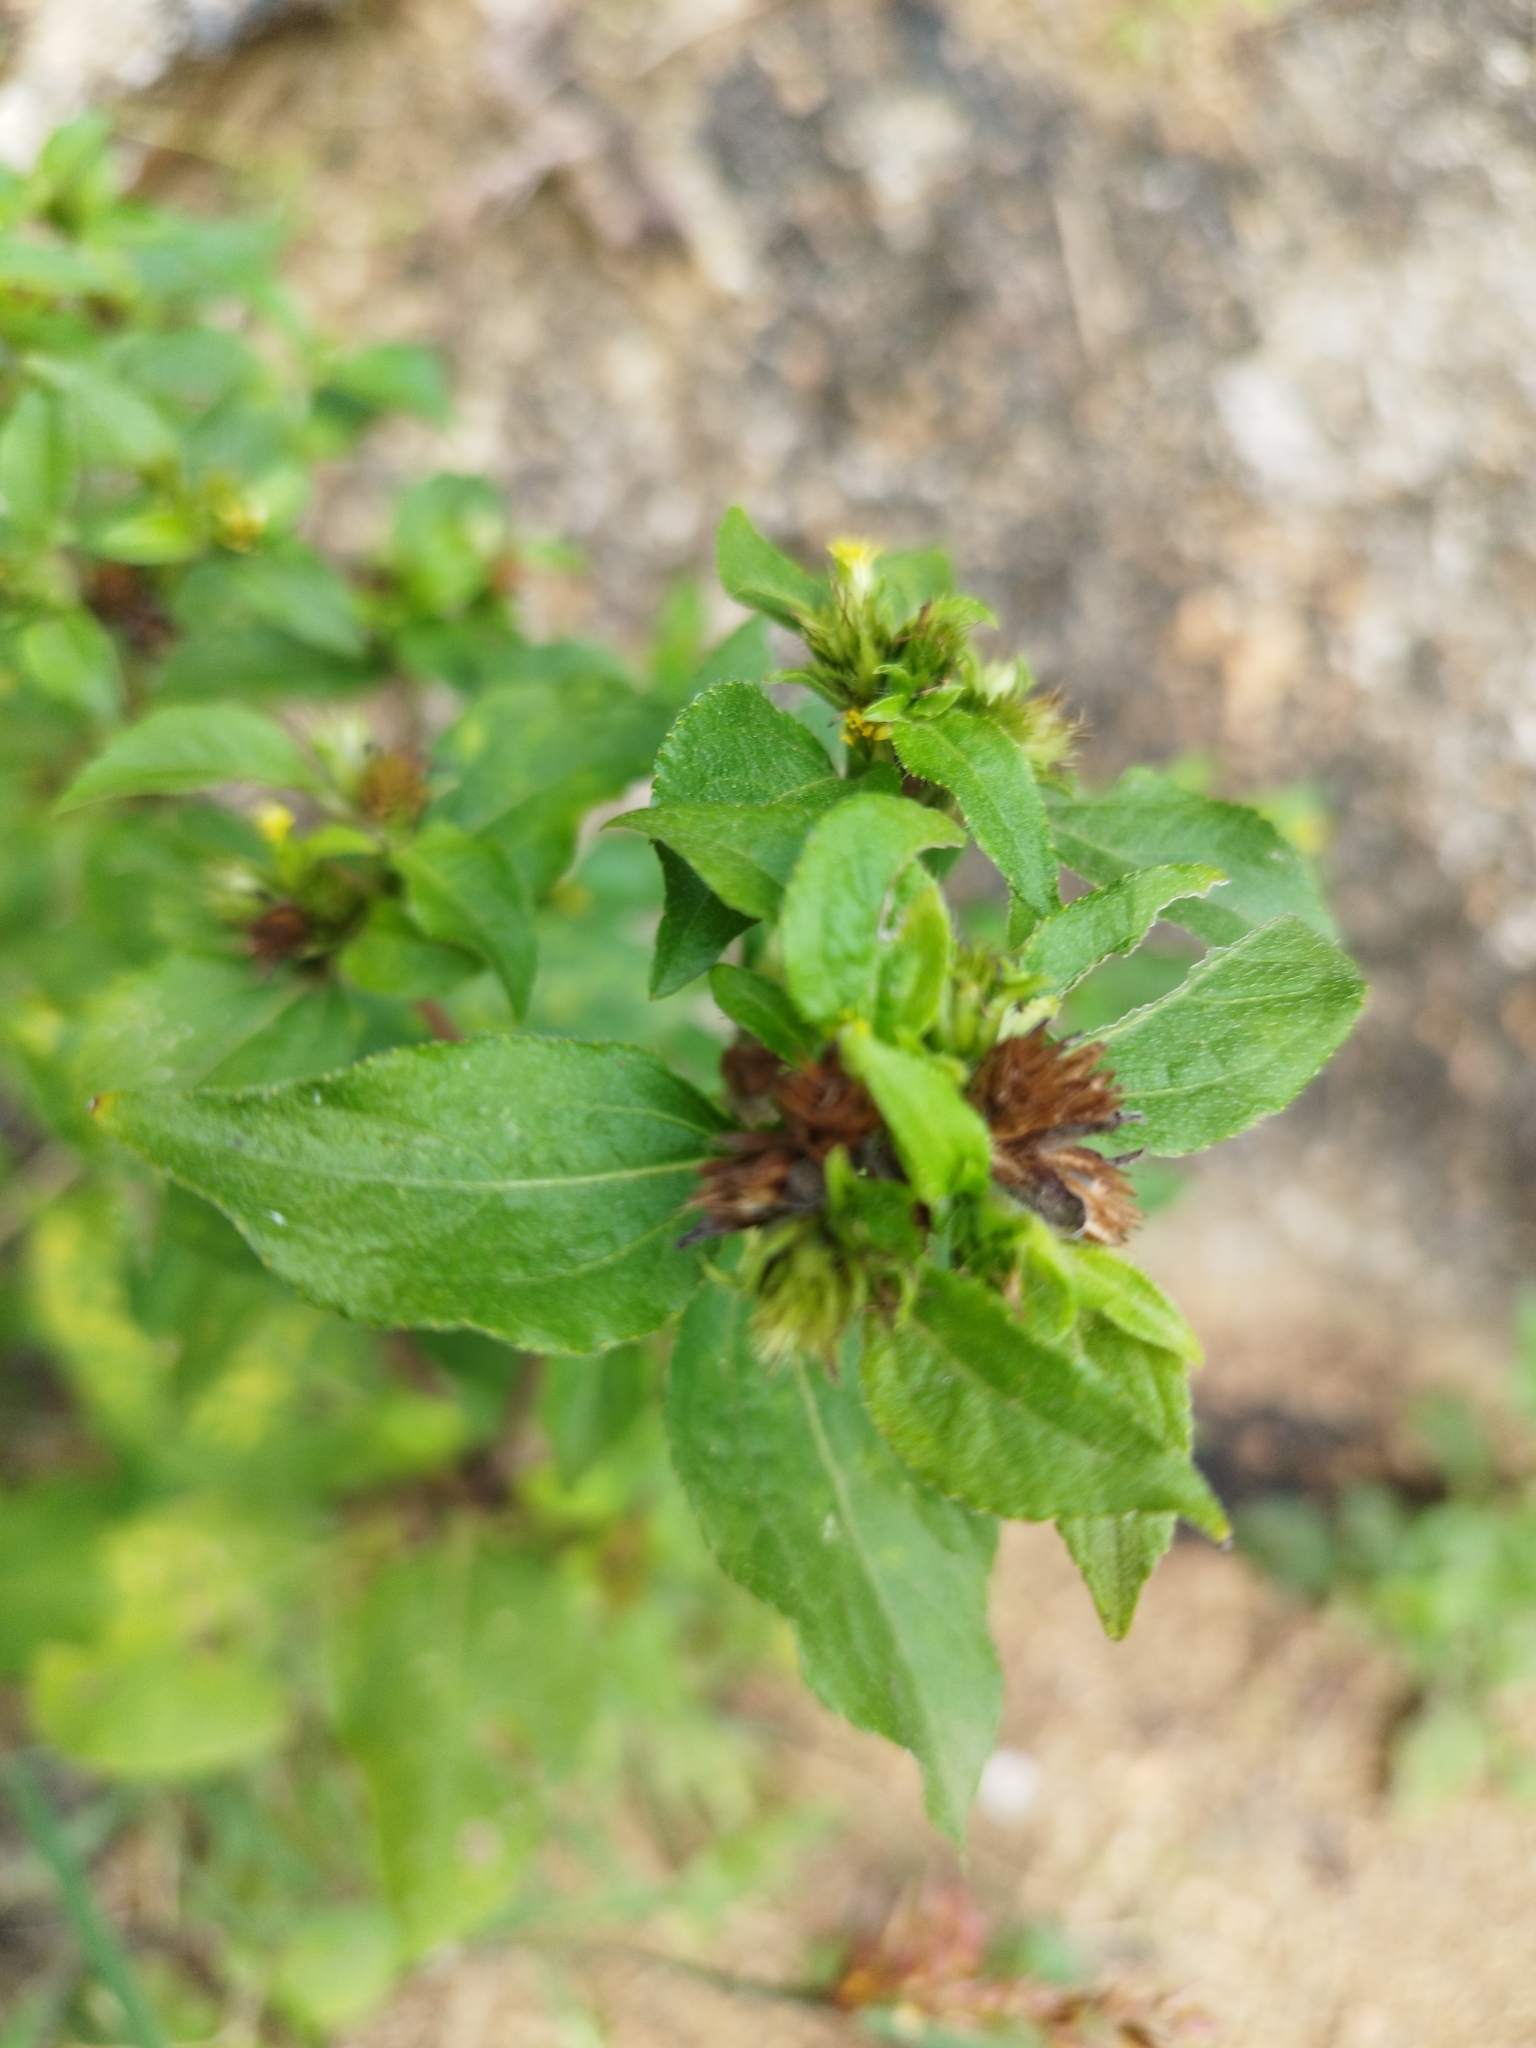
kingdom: Plantae
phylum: Tracheophyta
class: Magnoliopsida
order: Asterales
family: Asteraceae
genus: Synedrella
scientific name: Synedrella nodiflora
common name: Nodeweed
